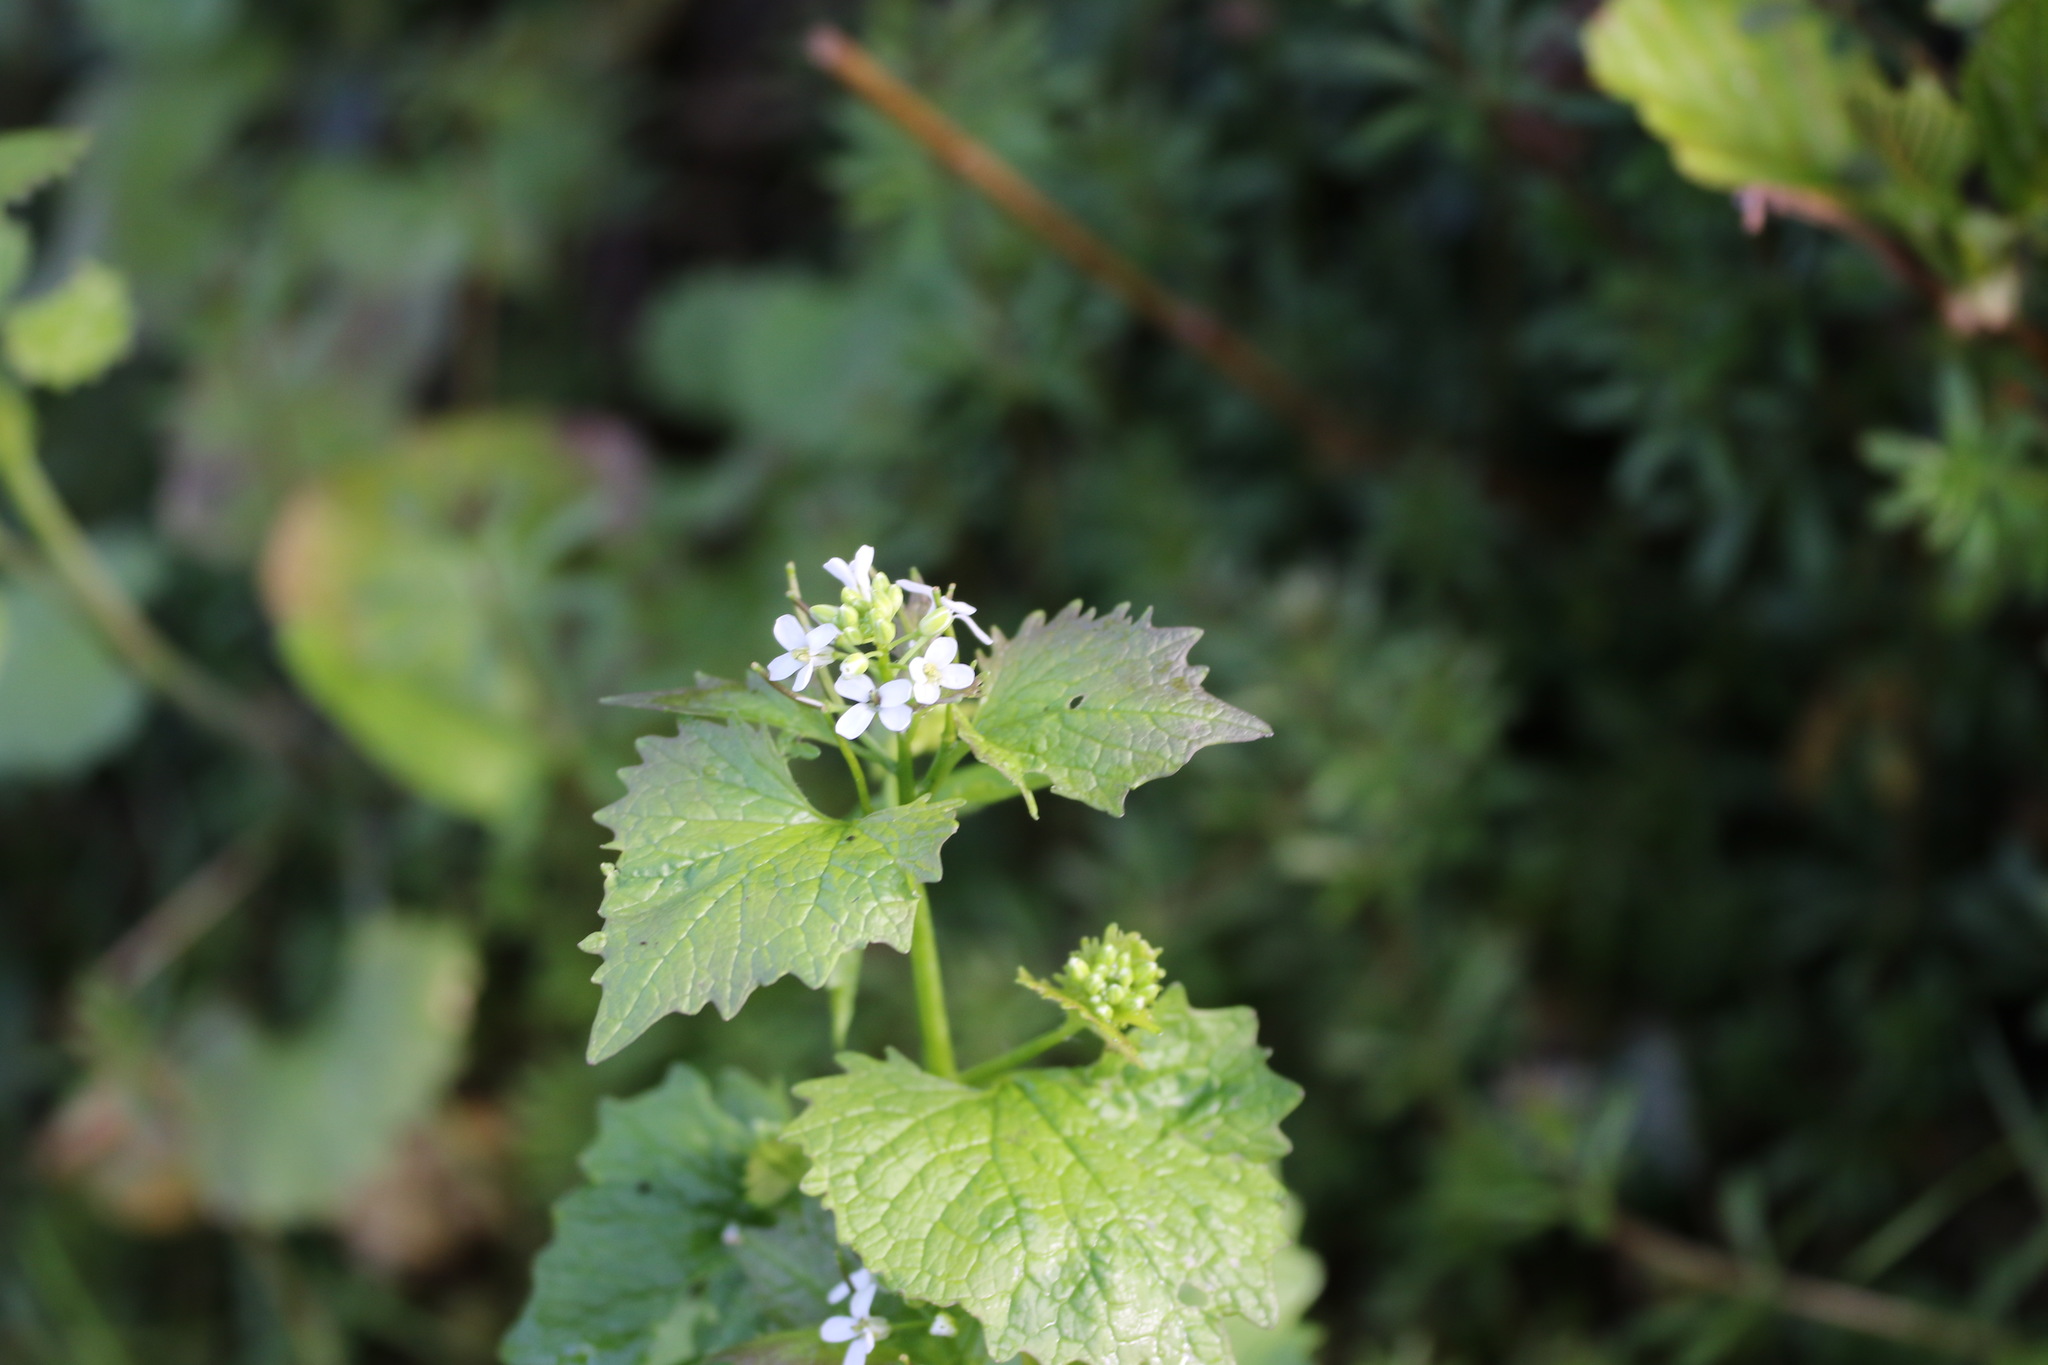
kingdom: Plantae
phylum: Tracheophyta
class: Magnoliopsida
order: Brassicales
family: Brassicaceae
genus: Alliaria
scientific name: Alliaria petiolata
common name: Garlic mustard
